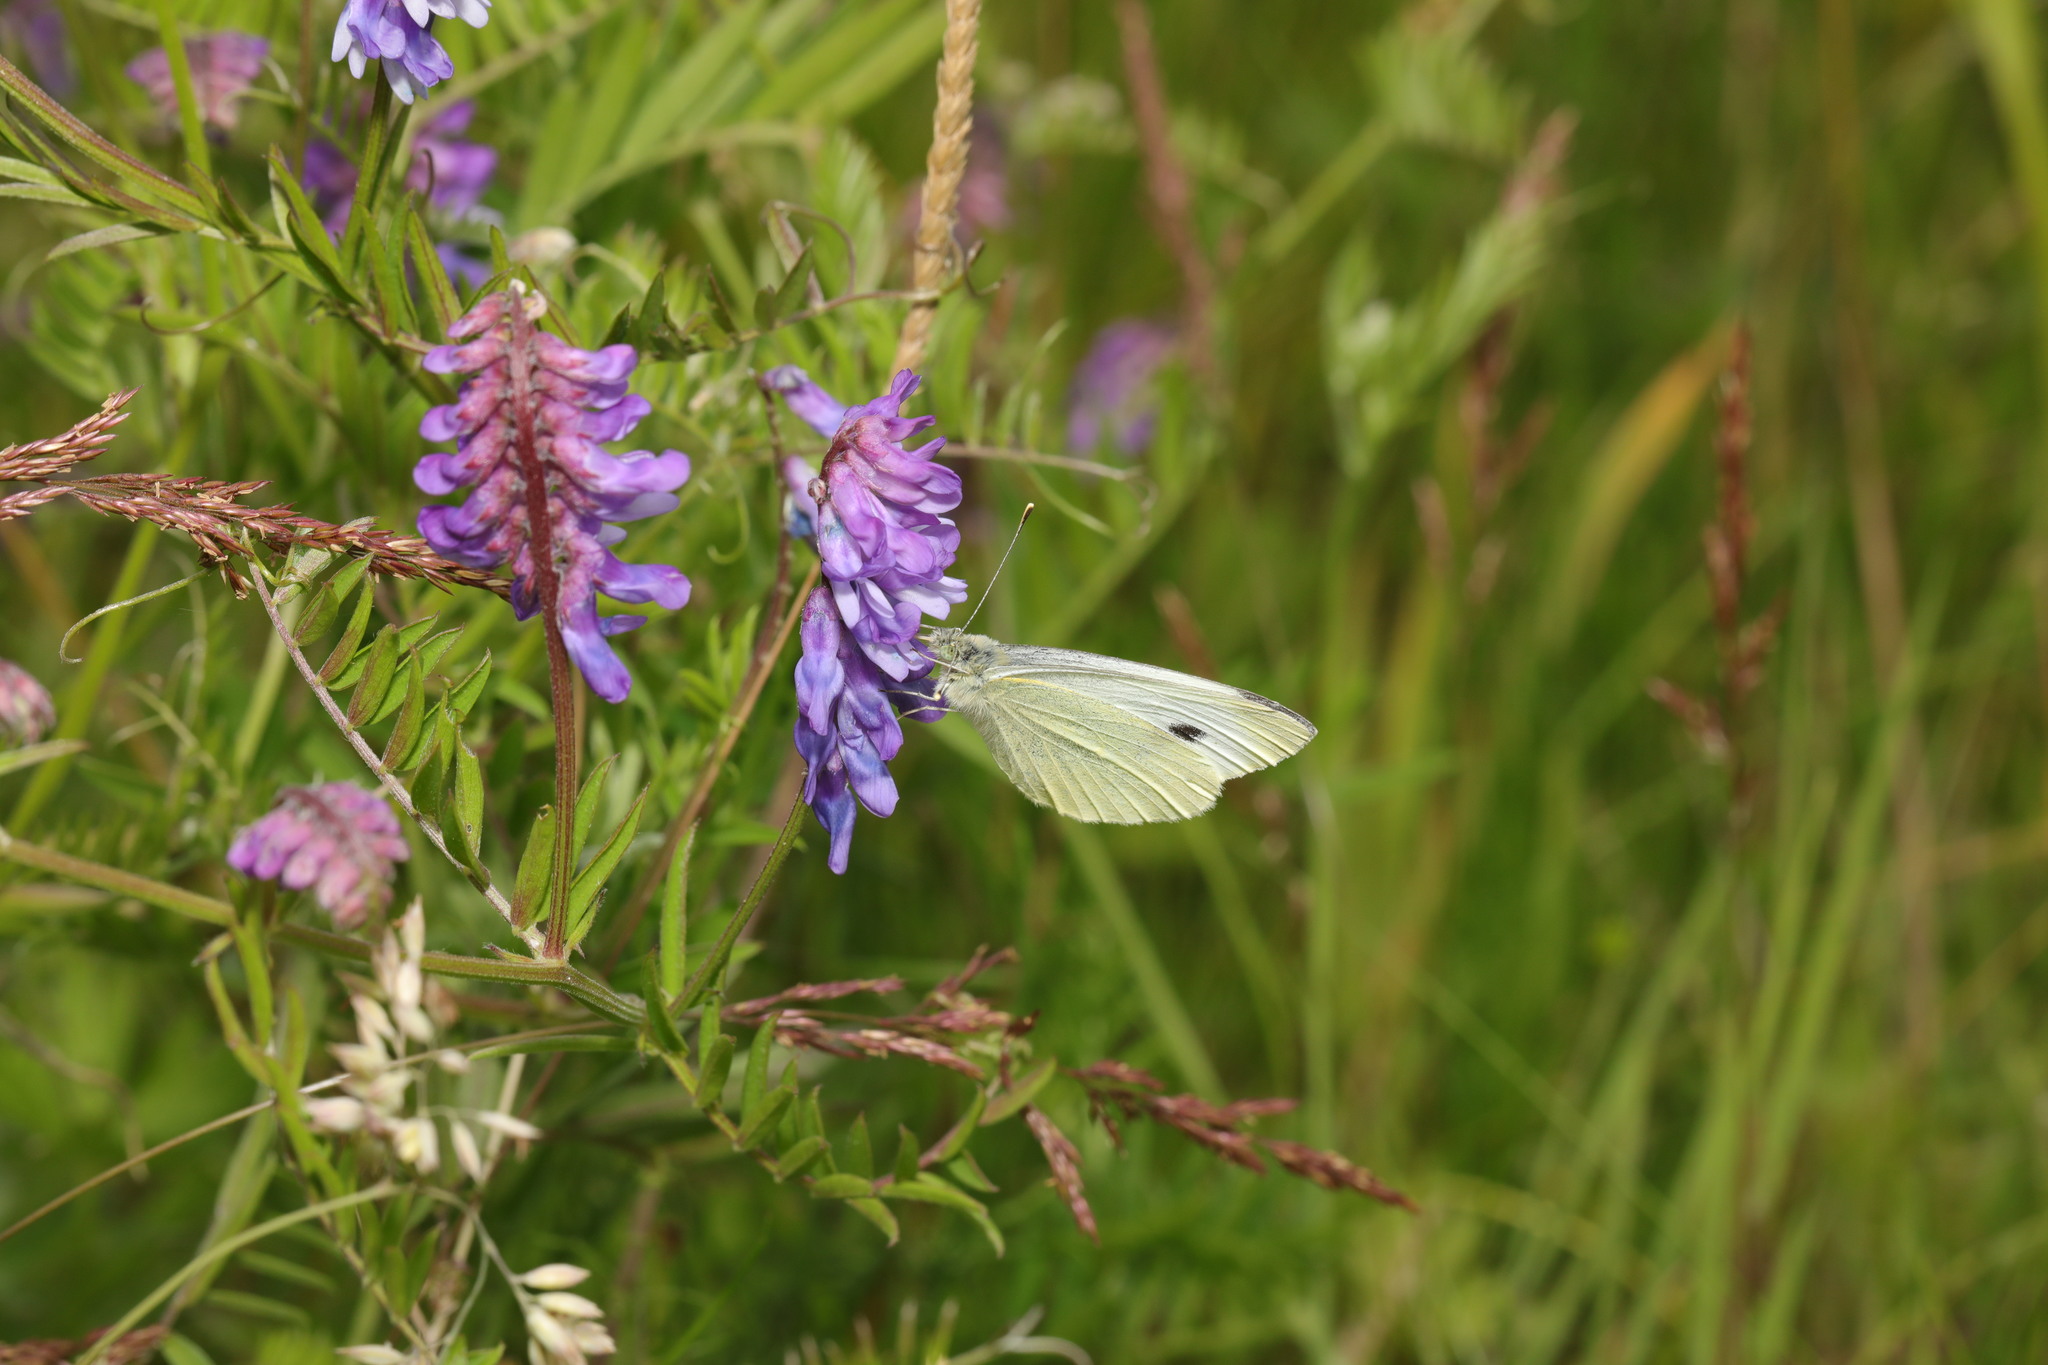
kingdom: Animalia
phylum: Arthropoda
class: Insecta
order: Lepidoptera
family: Pieridae
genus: Pieris
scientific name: Pieris rapae
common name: Small white
